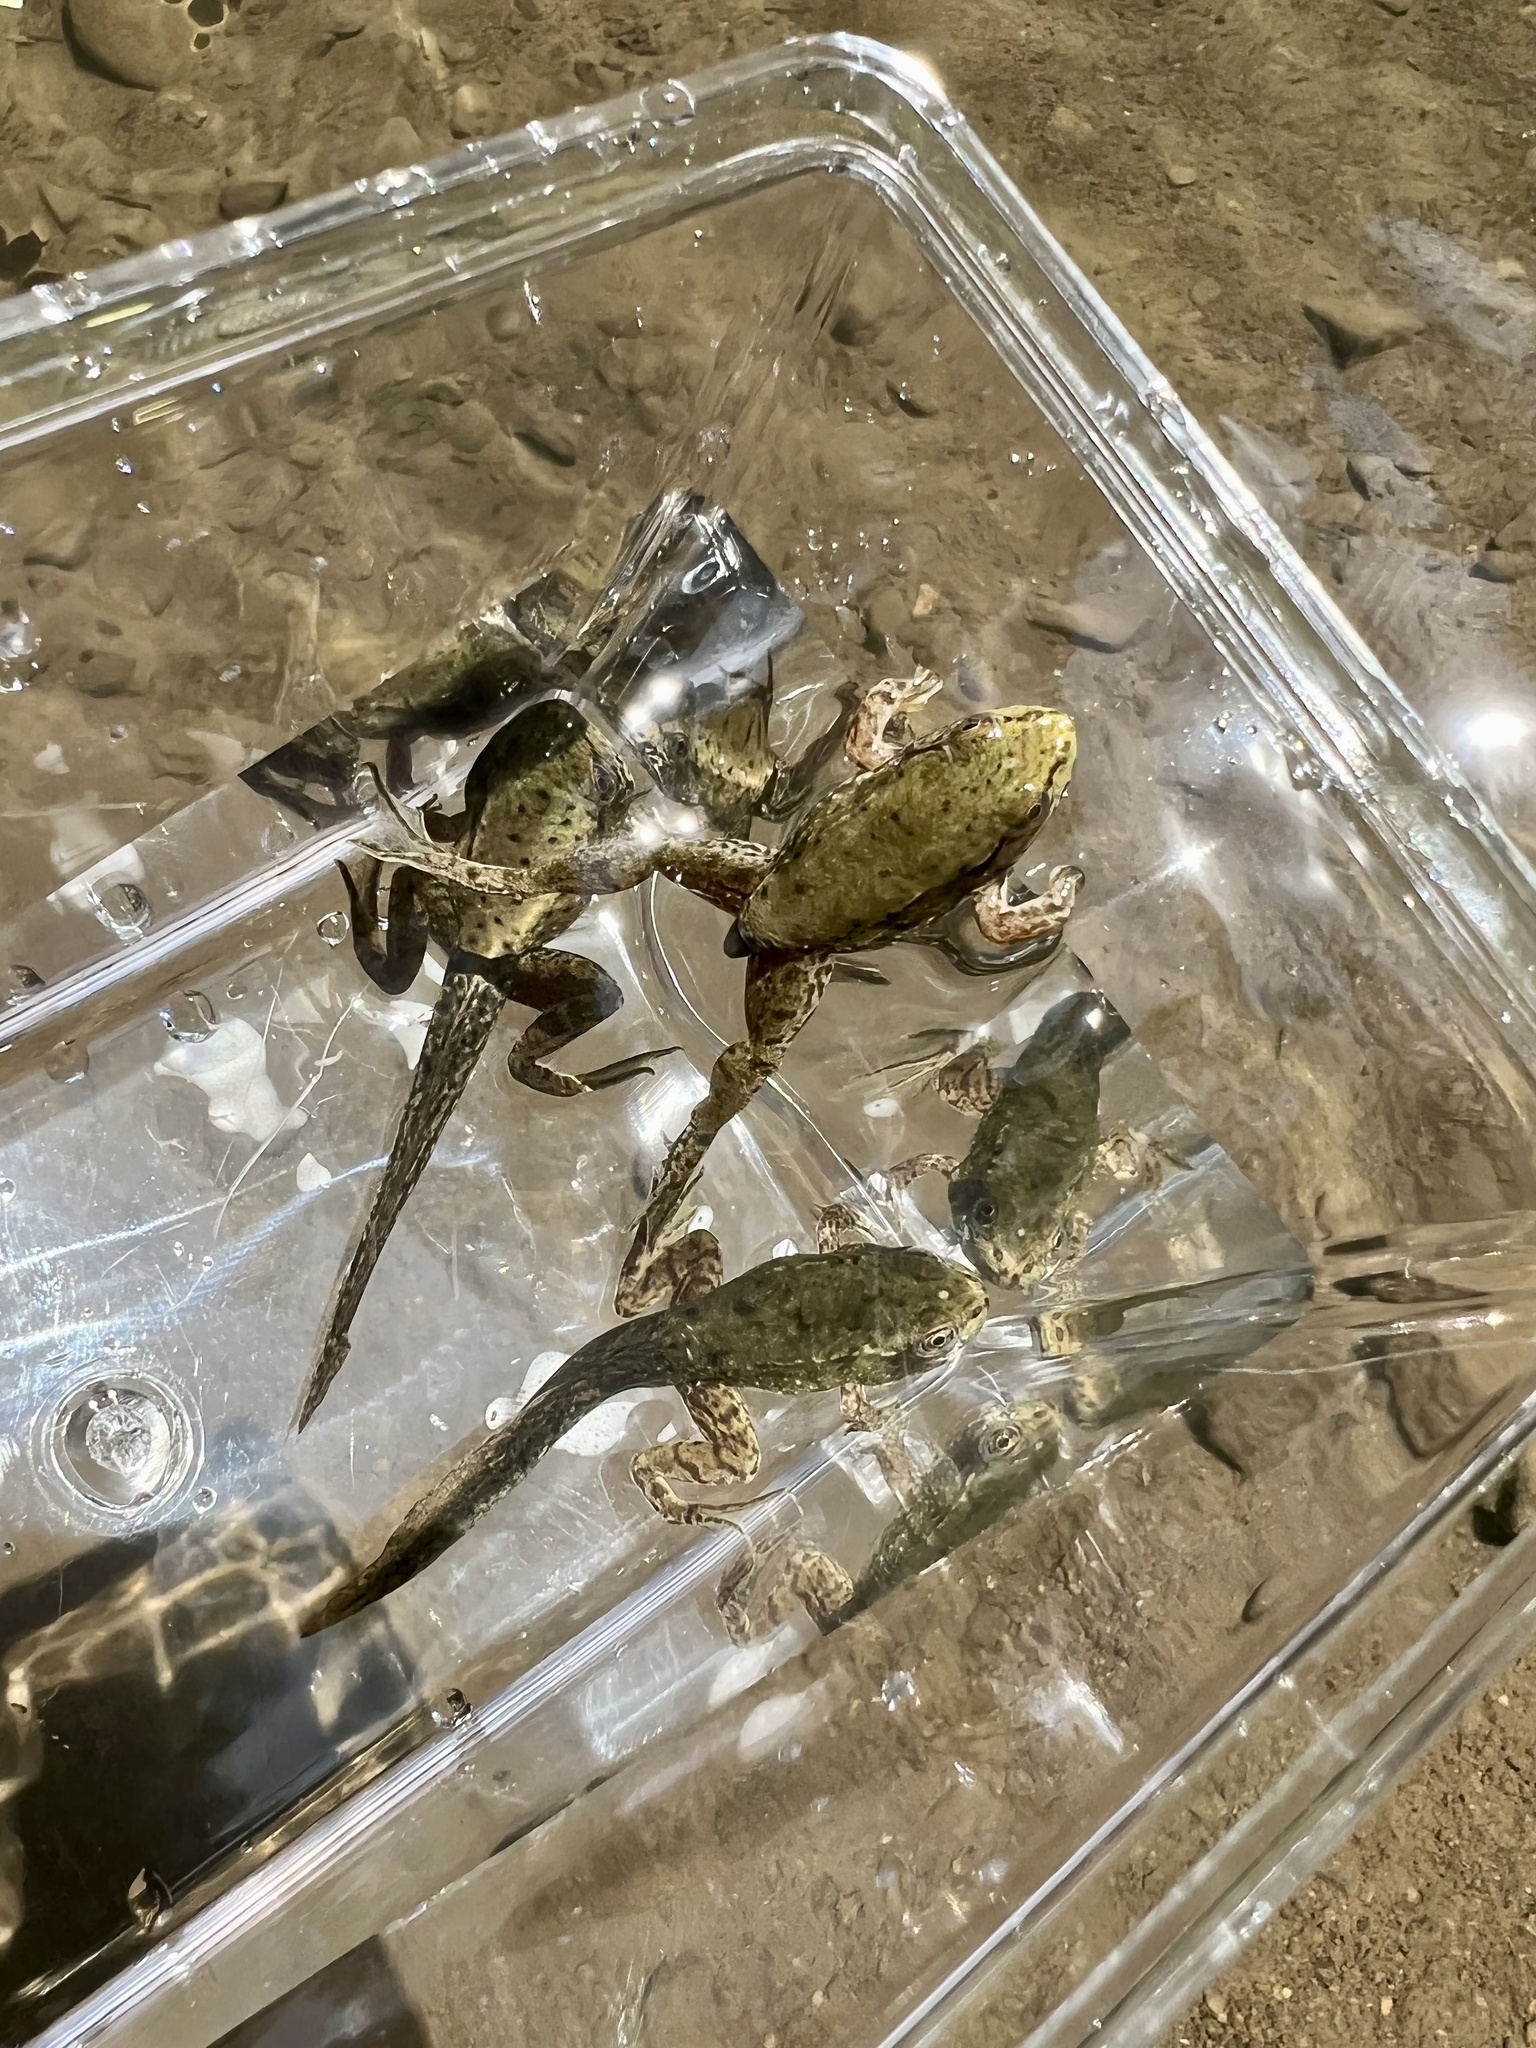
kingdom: Animalia
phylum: Chordata
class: Amphibia
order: Anura
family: Ranidae
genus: Lithobates
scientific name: Lithobates clamitans
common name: Green frog
